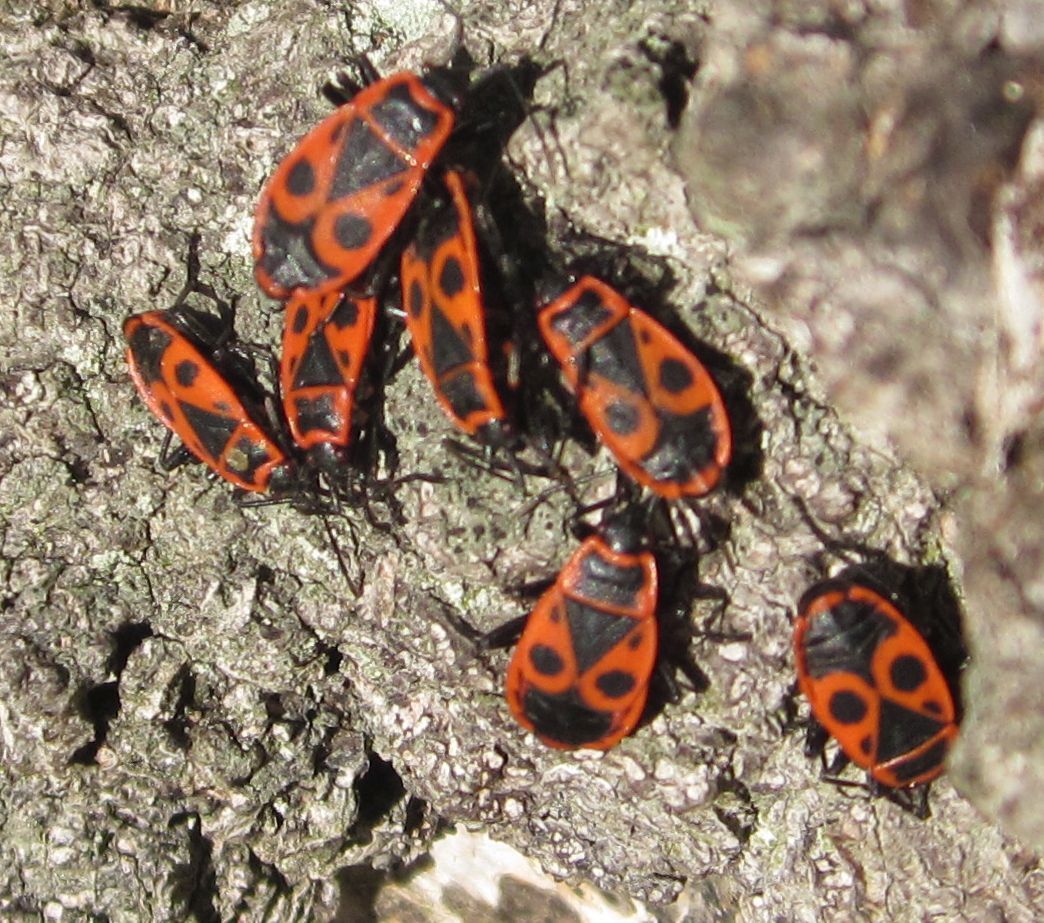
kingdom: Animalia
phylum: Arthropoda
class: Insecta
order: Hemiptera
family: Pyrrhocoridae
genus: Pyrrhocoris
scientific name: Pyrrhocoris apterus
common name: Firebug
